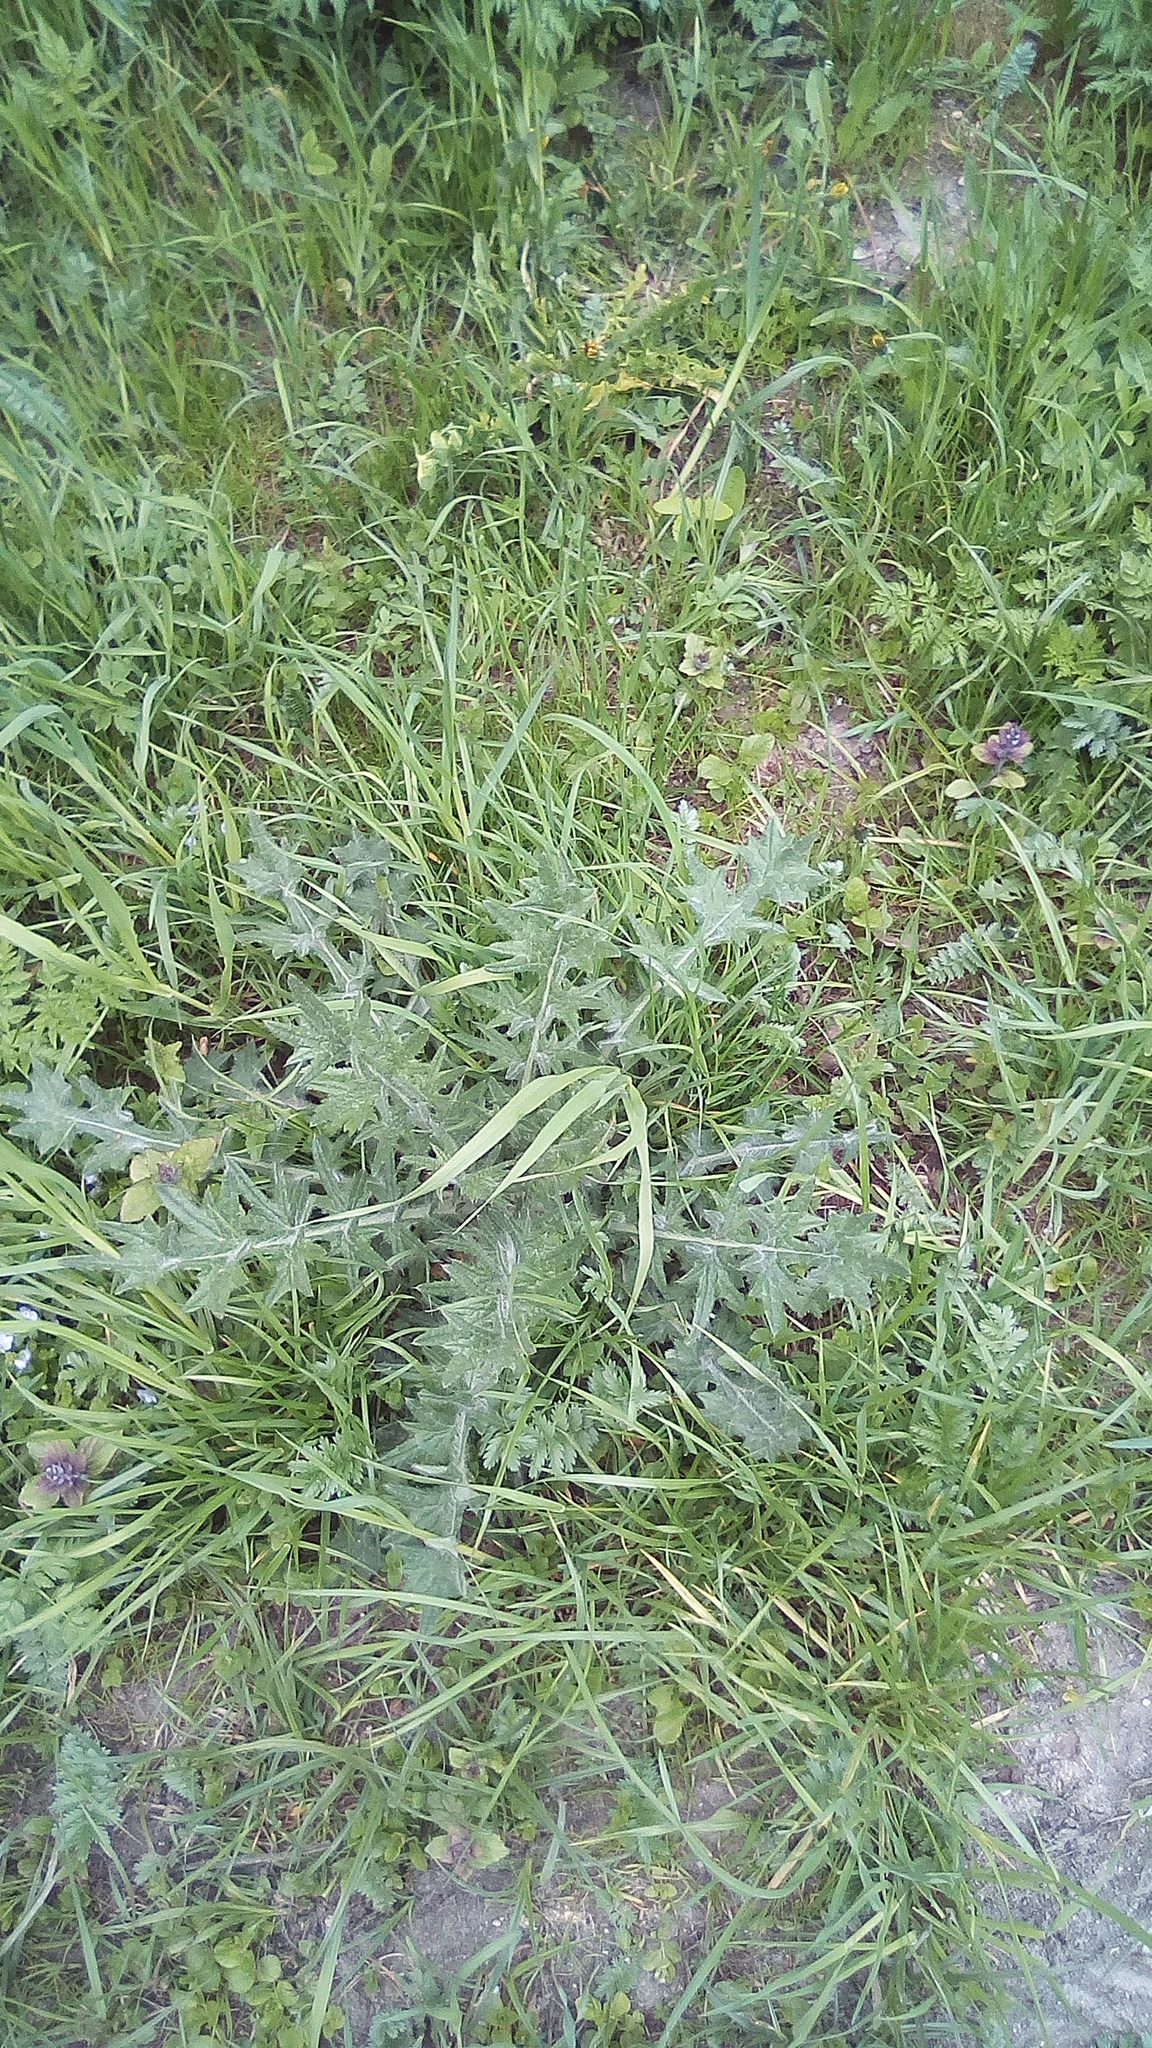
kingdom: Plantae
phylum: Tracheophyta
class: Magnoliopsida
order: Asterales
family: Asteraceae
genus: Cirsium
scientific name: Cirsium vulgare
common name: Bull thistle
